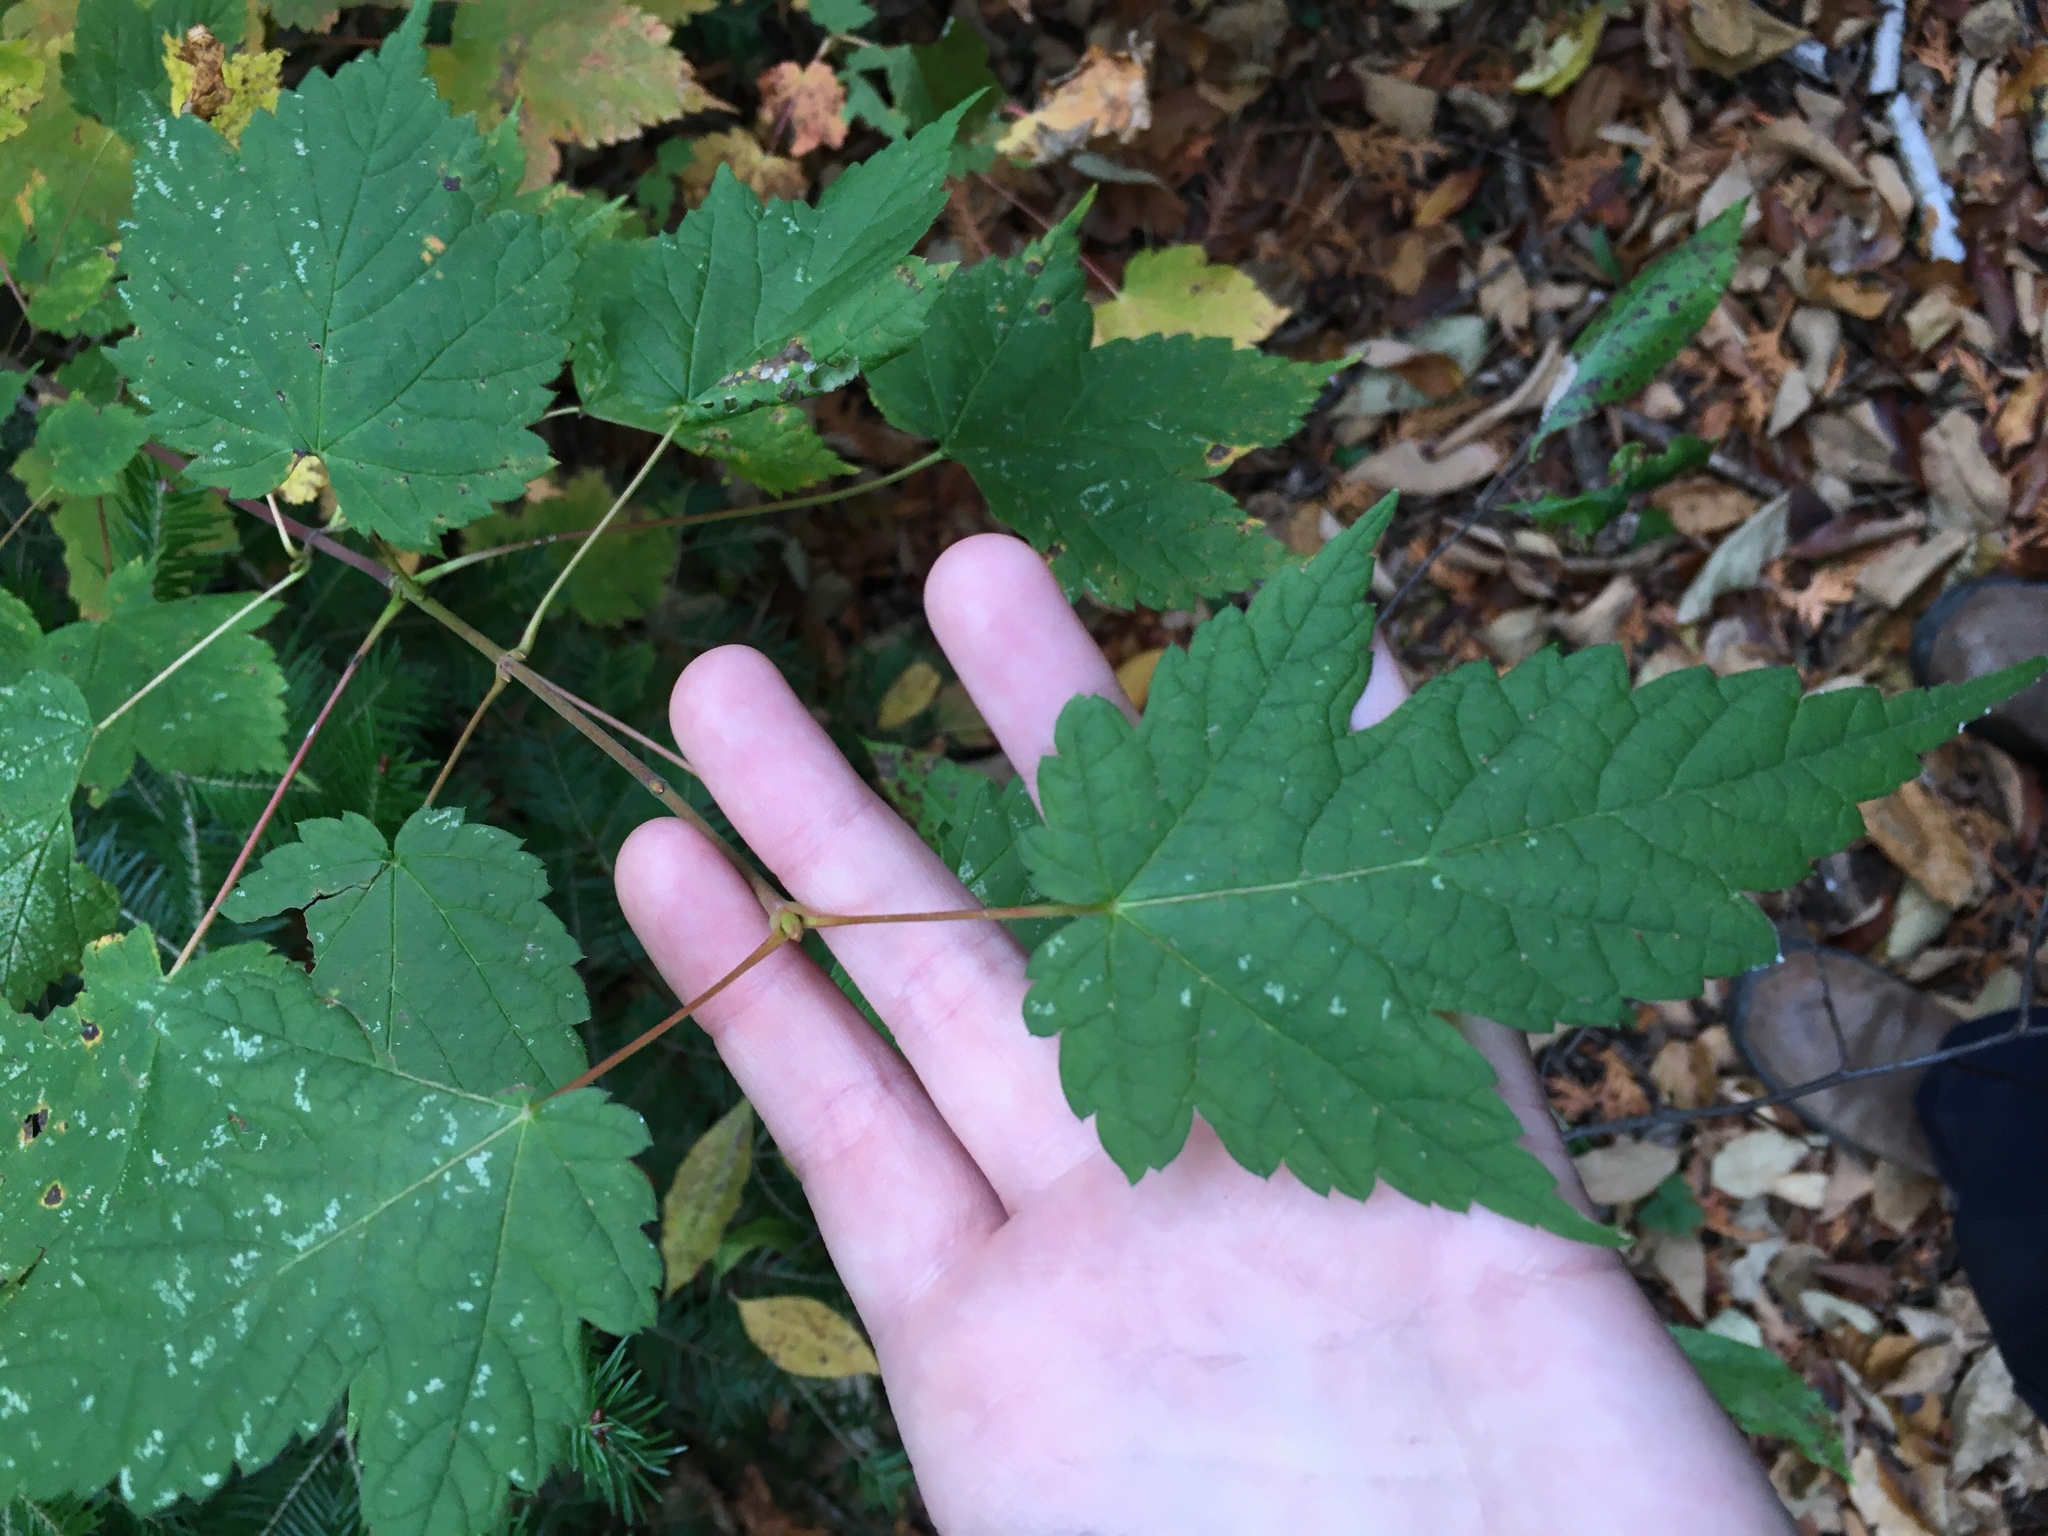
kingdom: Plantae
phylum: Tracheophyta
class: Magnoliopsida
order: Sapindales
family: Sapindaceae
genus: Acer
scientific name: Acer spicatum
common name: Mountain maple
